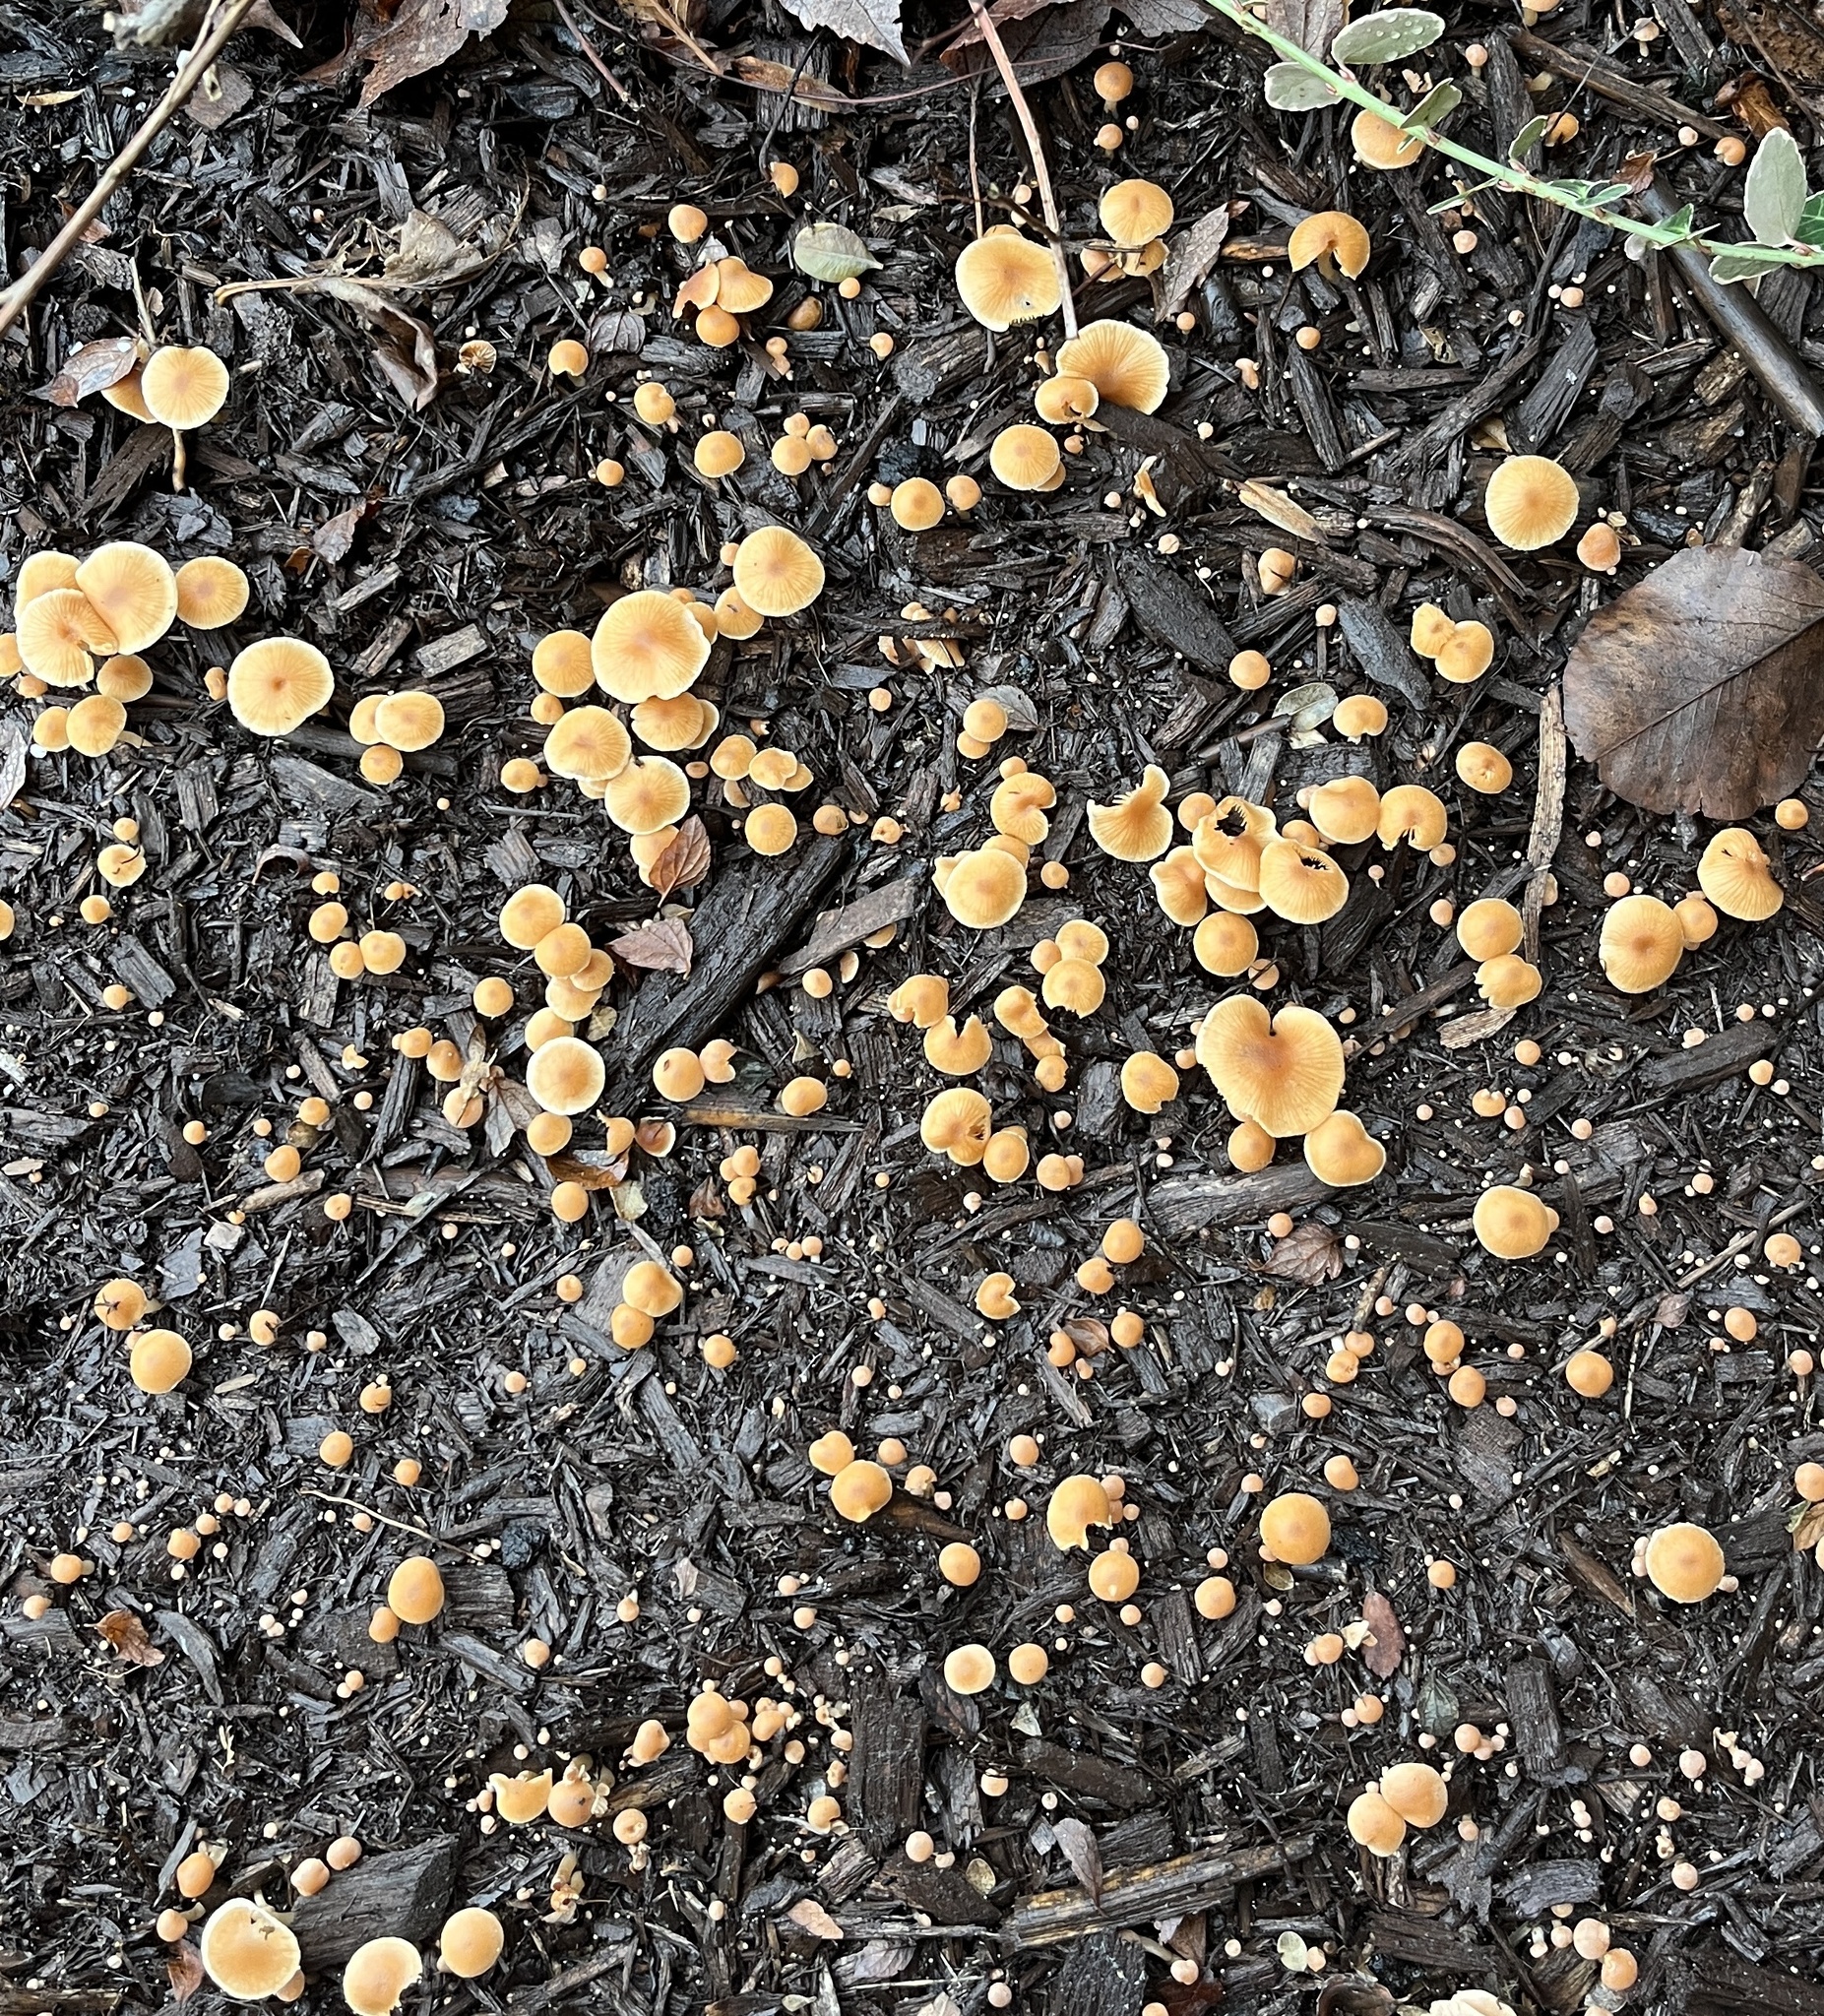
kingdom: Fungi
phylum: Basidiomycota
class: Agaricomycetes
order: Agaricales
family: Tubariaceae
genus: Tubaria
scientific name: Tubaria furfuracea
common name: Scurfy twiglet
